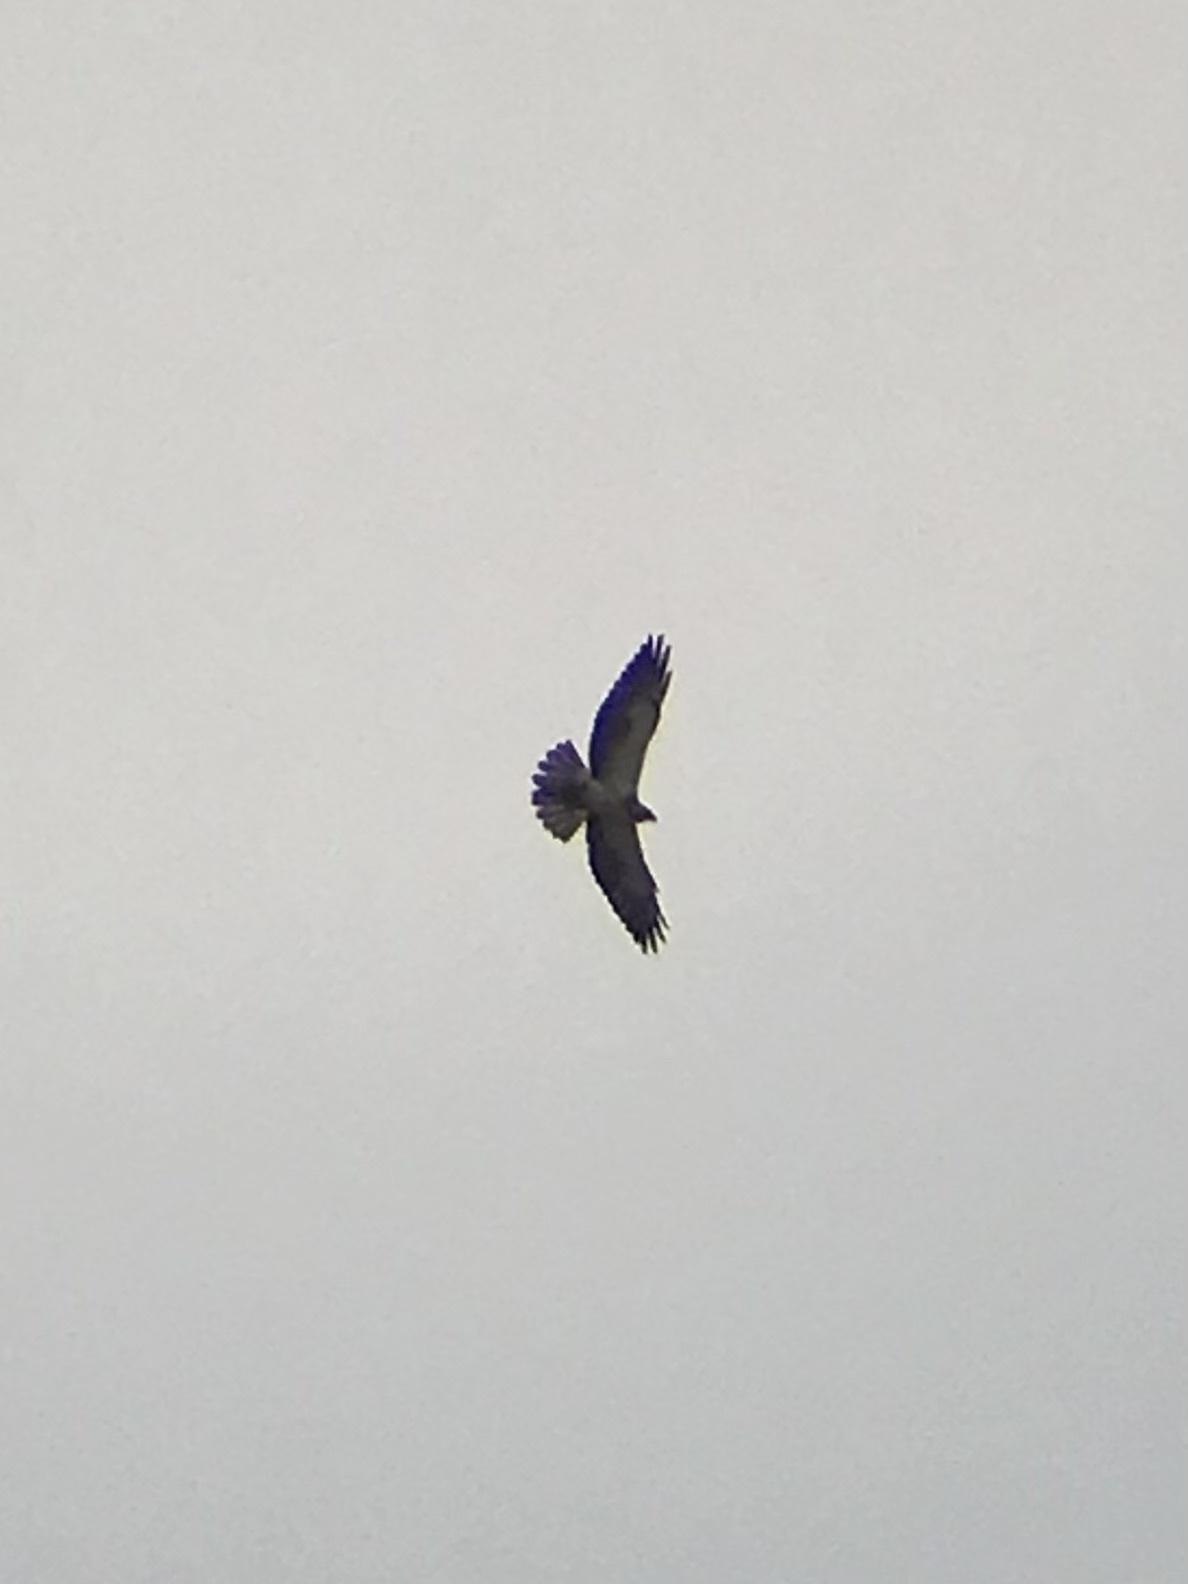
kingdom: Animalia
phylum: Chordata
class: Aves
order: Accipitriformes
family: Accipitridae
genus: Buteo
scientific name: Buteo swainsoni
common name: Swainson's hawk
